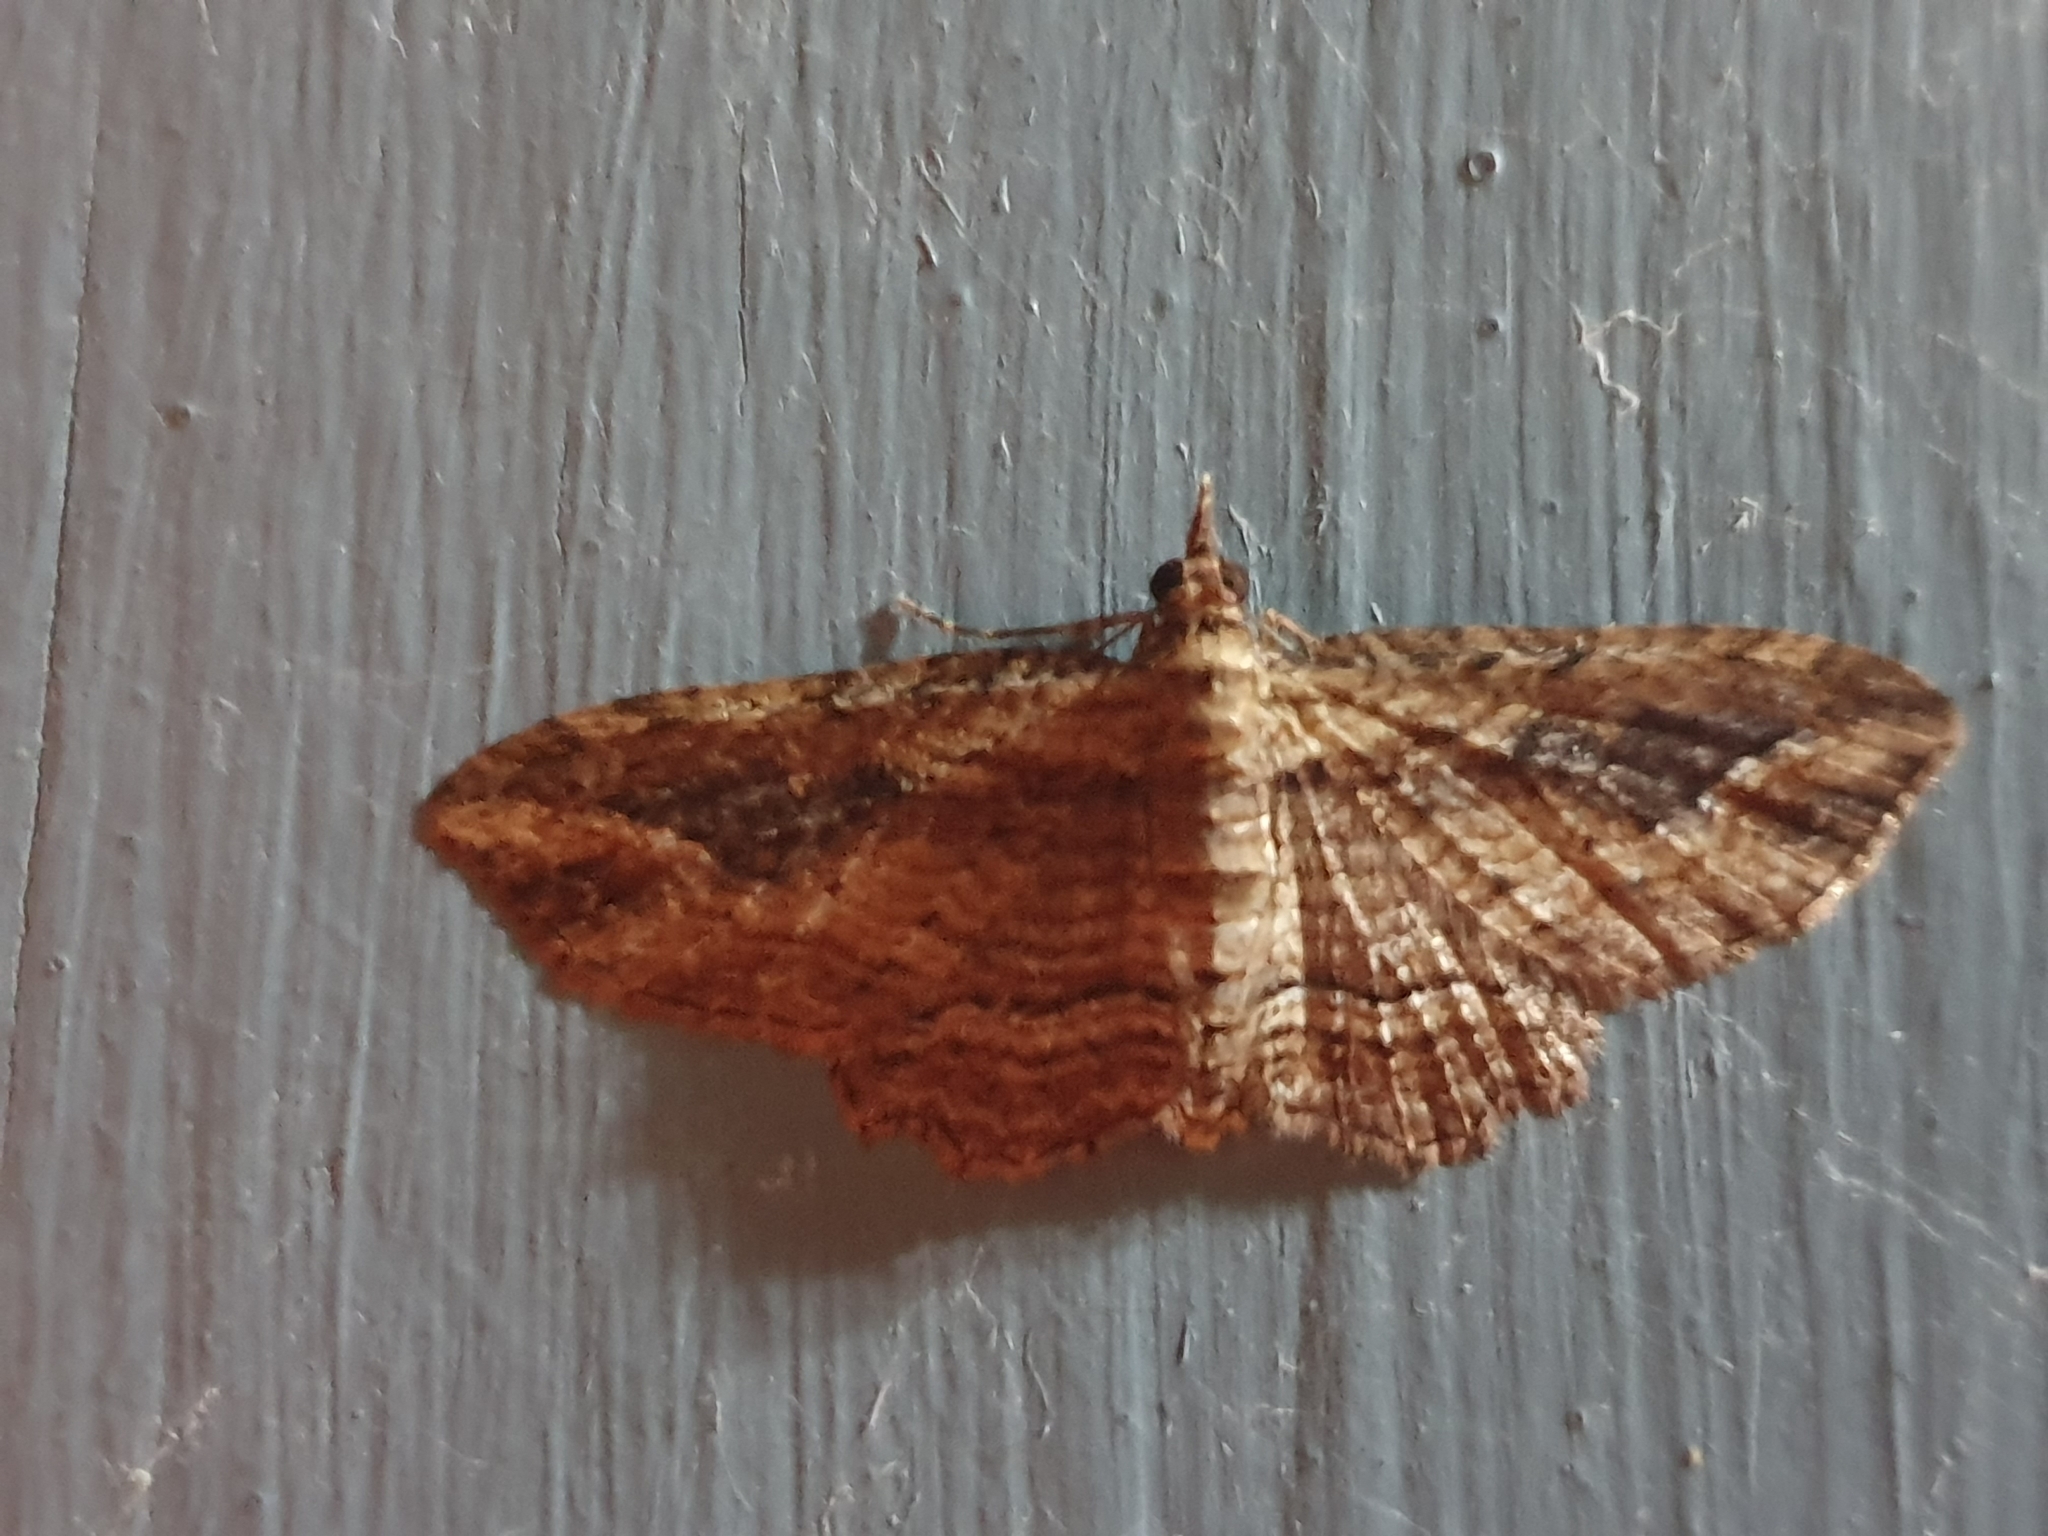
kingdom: Animalia
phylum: Arthropoda
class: Insecta
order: Lepidoptera
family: Geometridae
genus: Chloroclystis
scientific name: Chloroclystis filata
